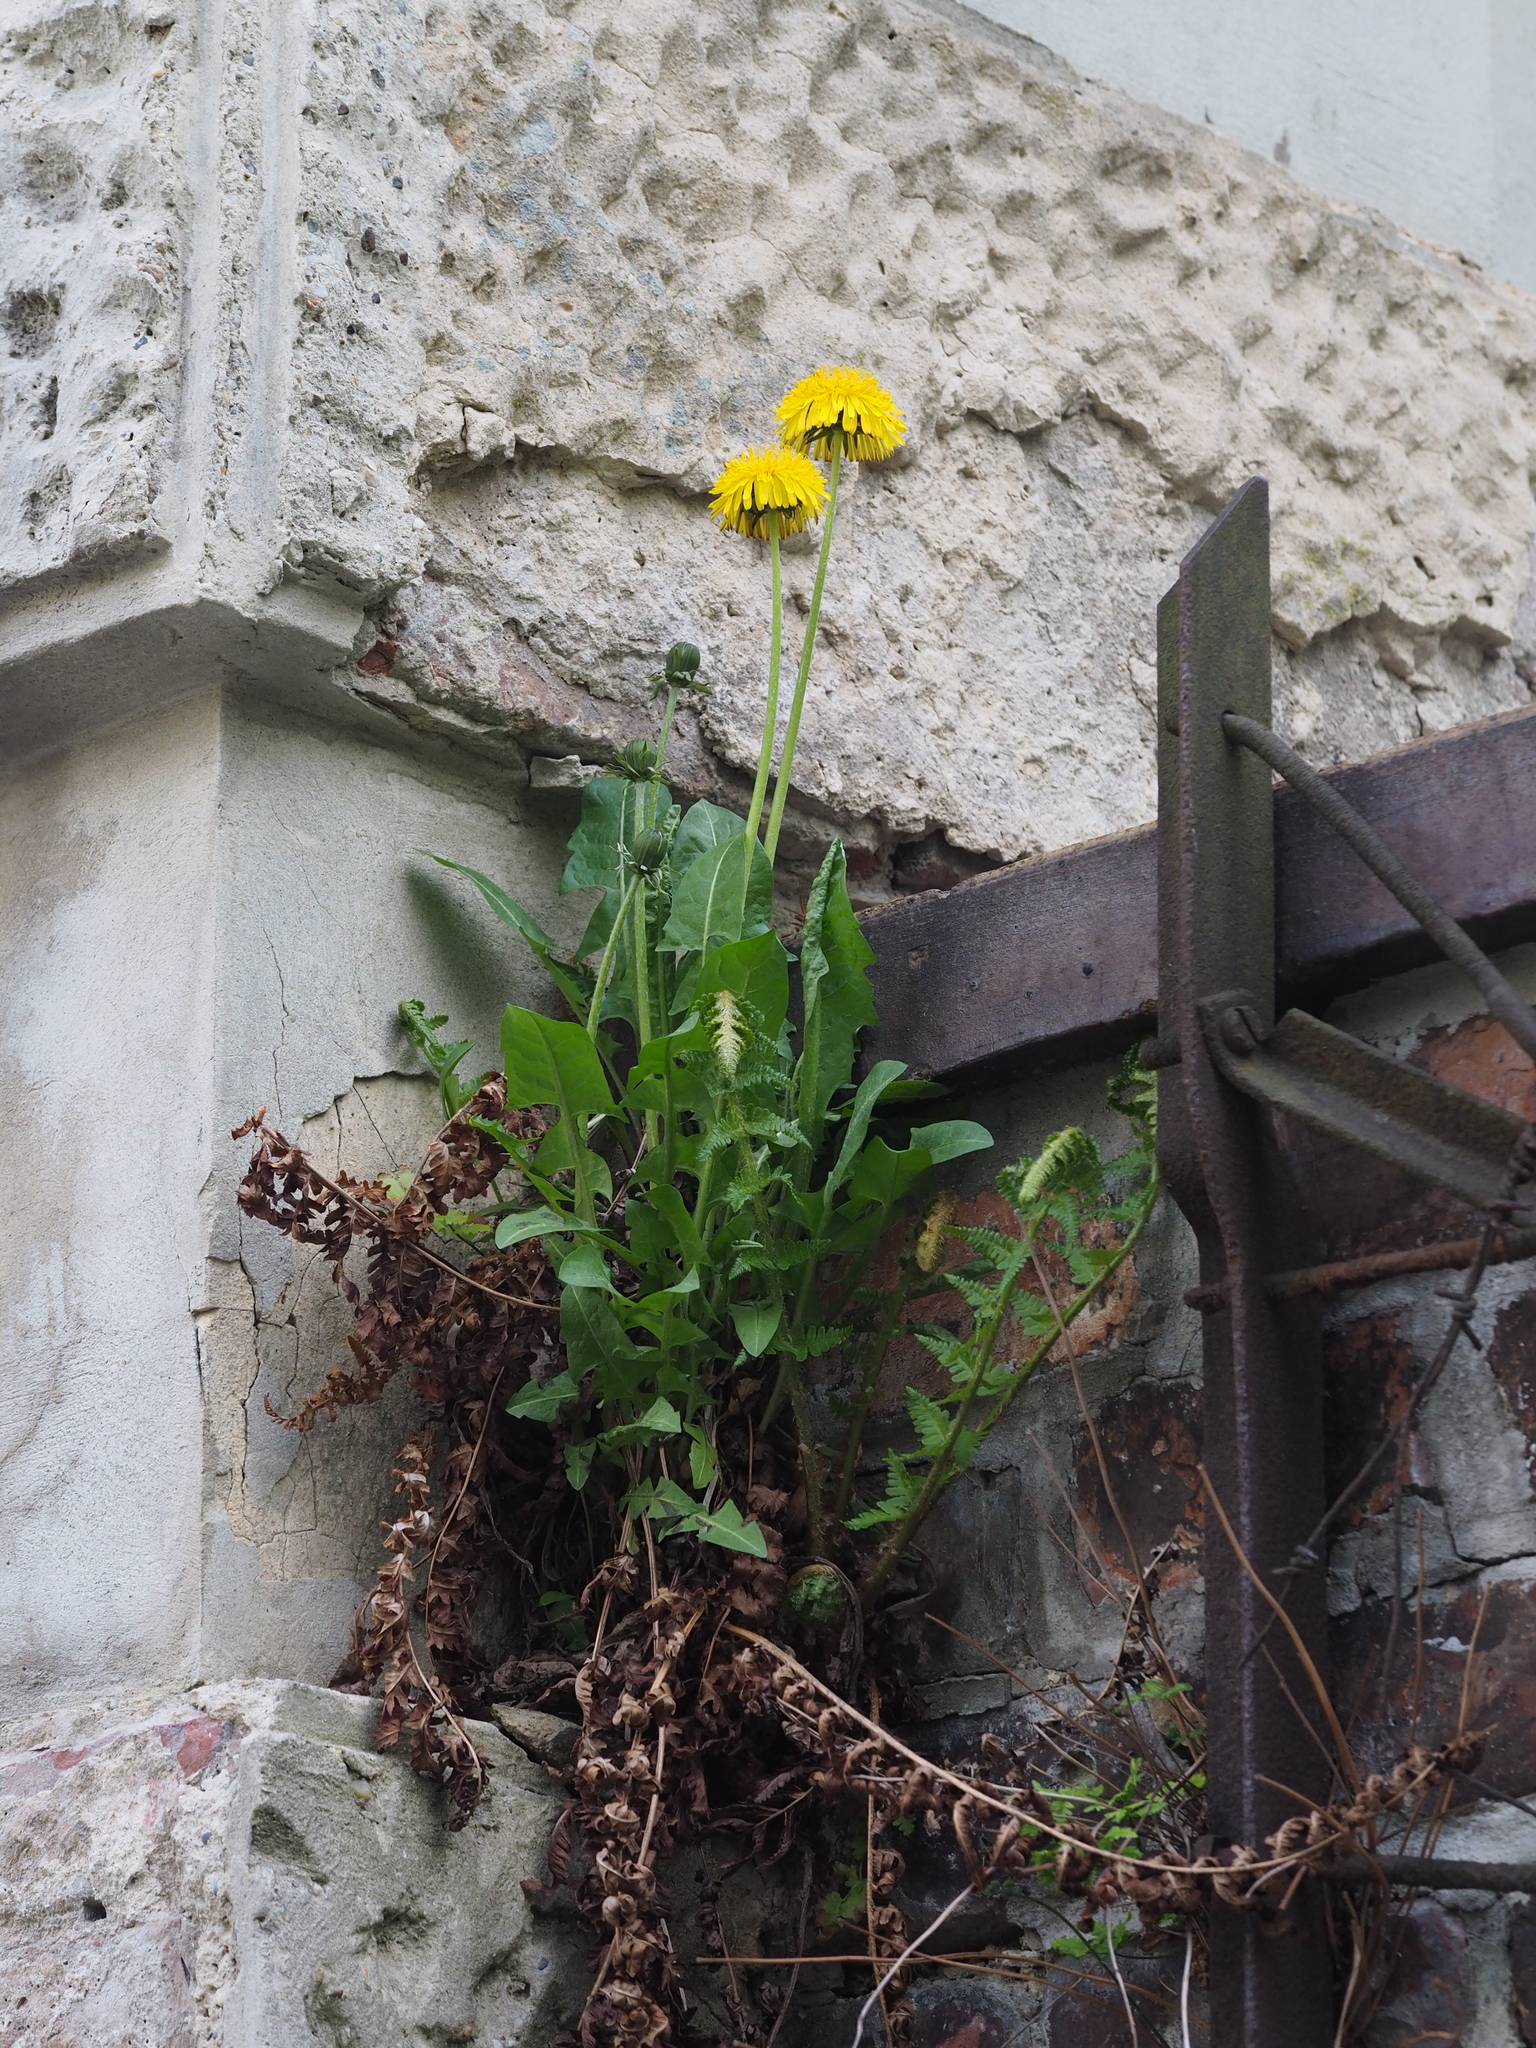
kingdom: Plantae
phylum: Tracheophyta
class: Magnoliopsida
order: Asterales
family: Asteraceae
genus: Taraxacum
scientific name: Taraxacum officinale
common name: Common dandelion
